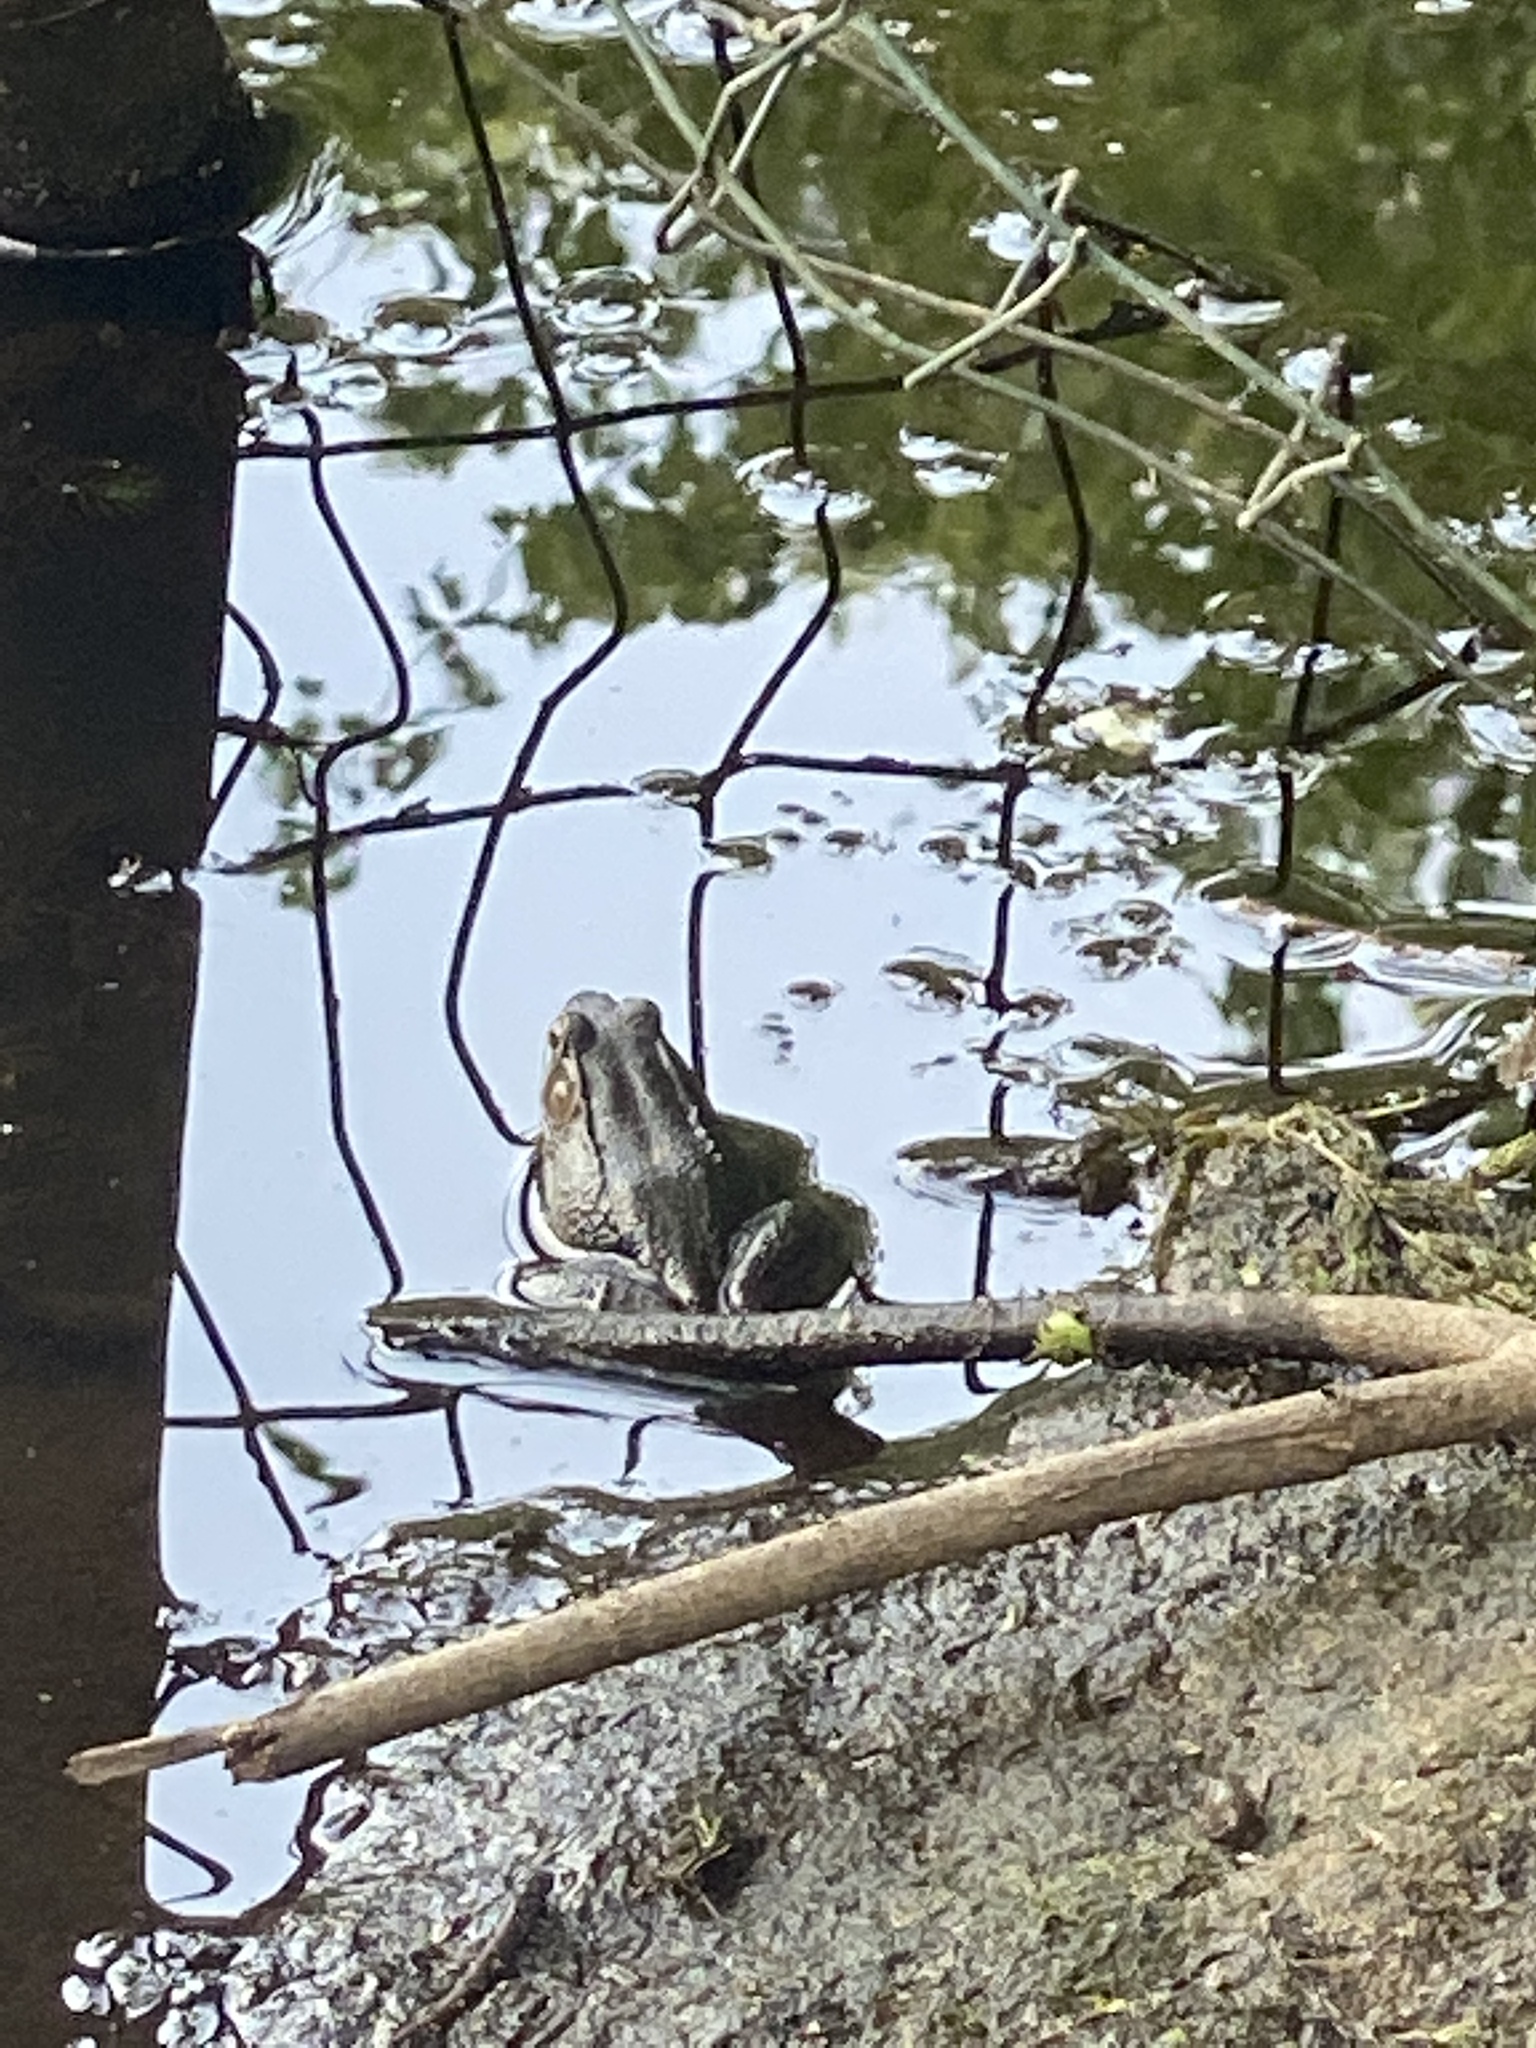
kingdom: Animalia
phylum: Chordata
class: Amphibia
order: Anura
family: Ranidae
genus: Lithobates
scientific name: Lithobates clamitans
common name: Green frog
